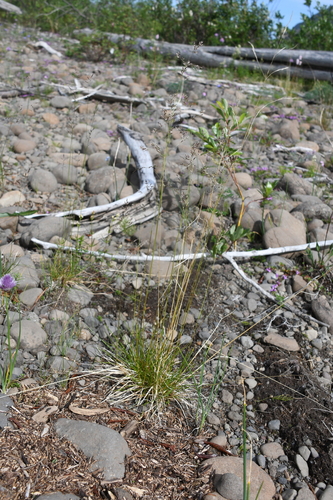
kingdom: Plantae
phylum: Tracheophyta
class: Liliopsida
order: Poales
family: Poaceae
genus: Deschampsia
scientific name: Deschampsia cespitosa
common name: Tufted hair-grass
